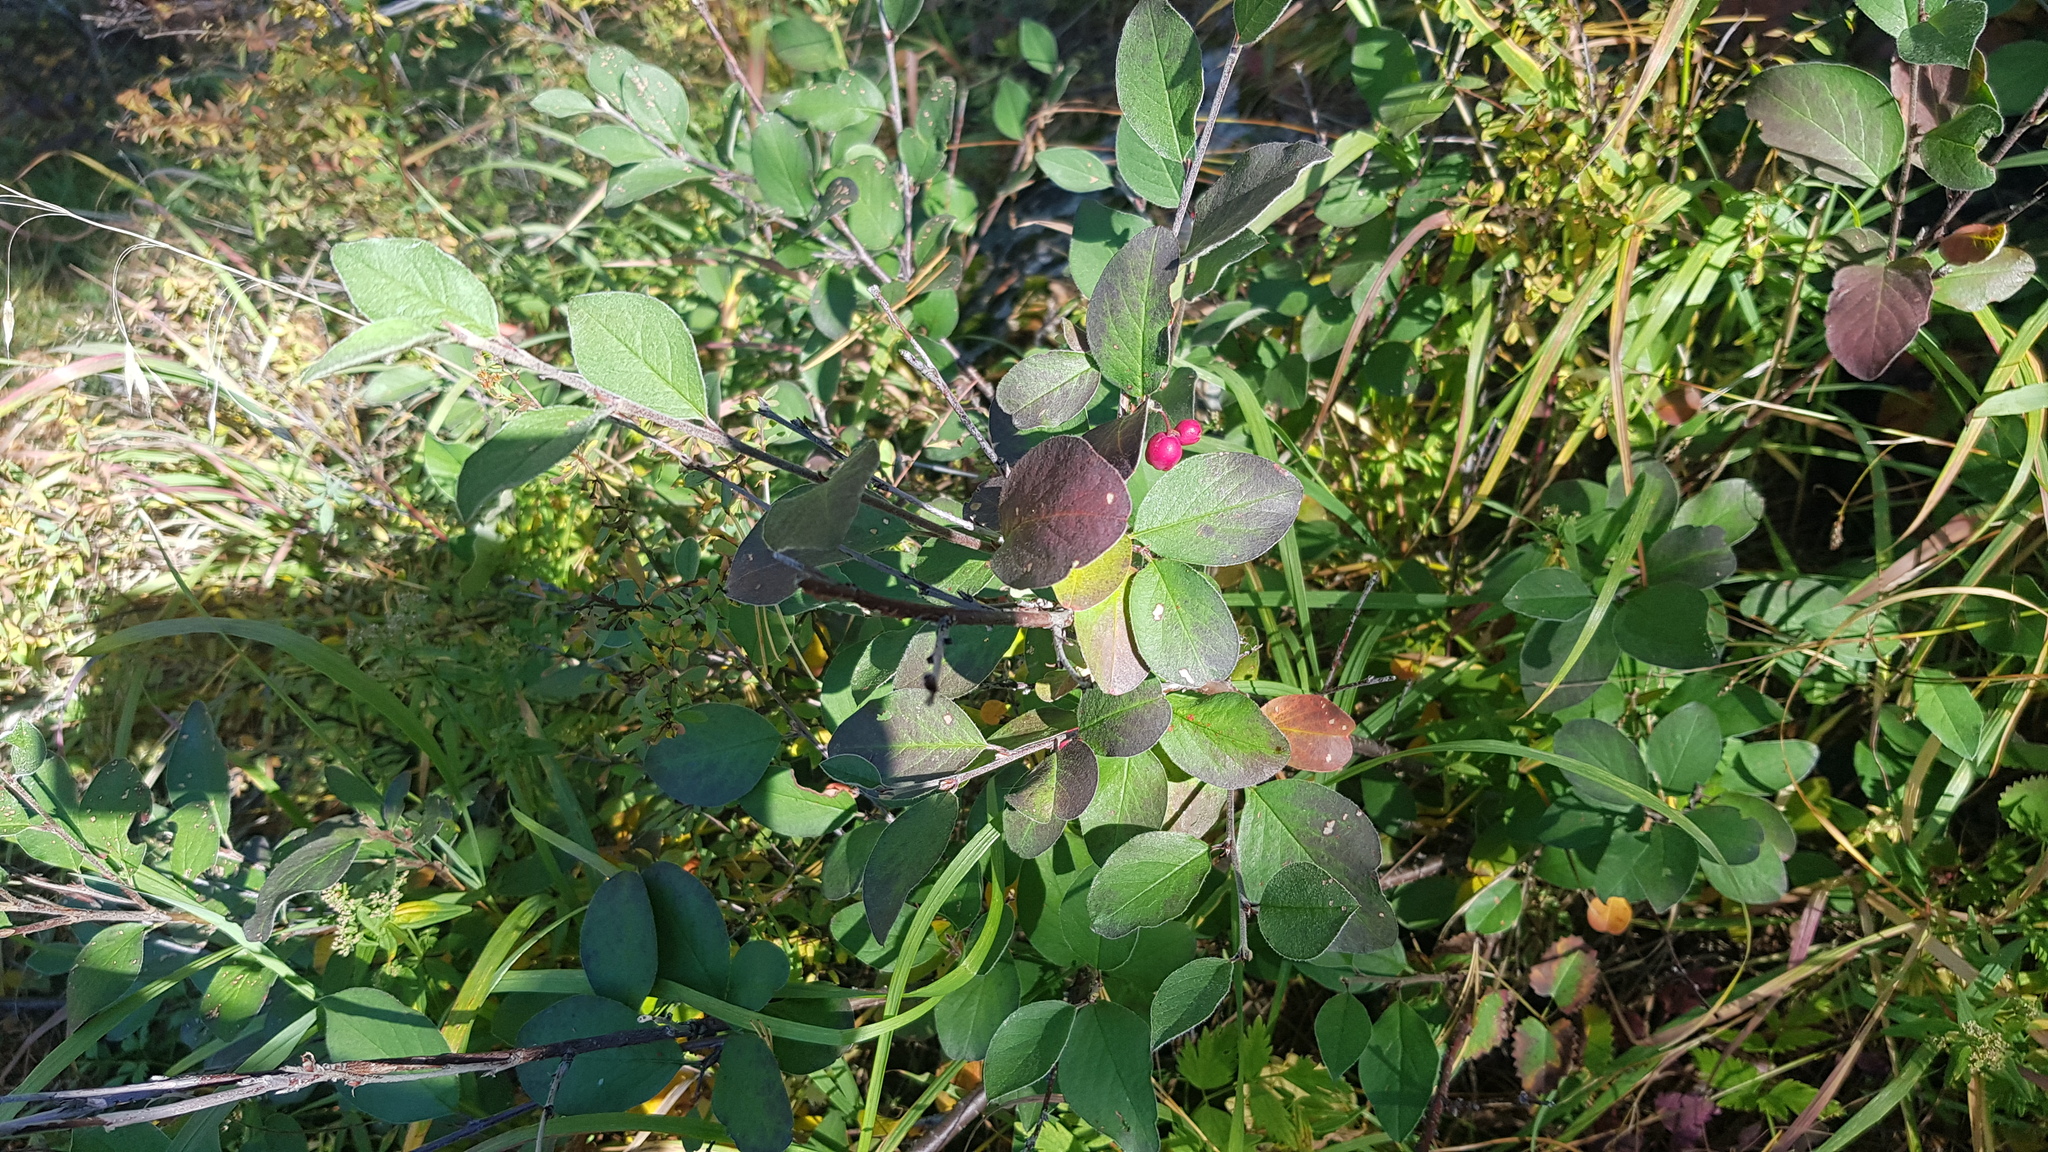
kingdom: Plantae
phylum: Tracheophyta
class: Magnoliopsida
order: Rosales
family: Rosaceae
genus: Cotoneaster
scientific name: Cotoneaster melanocarpus
